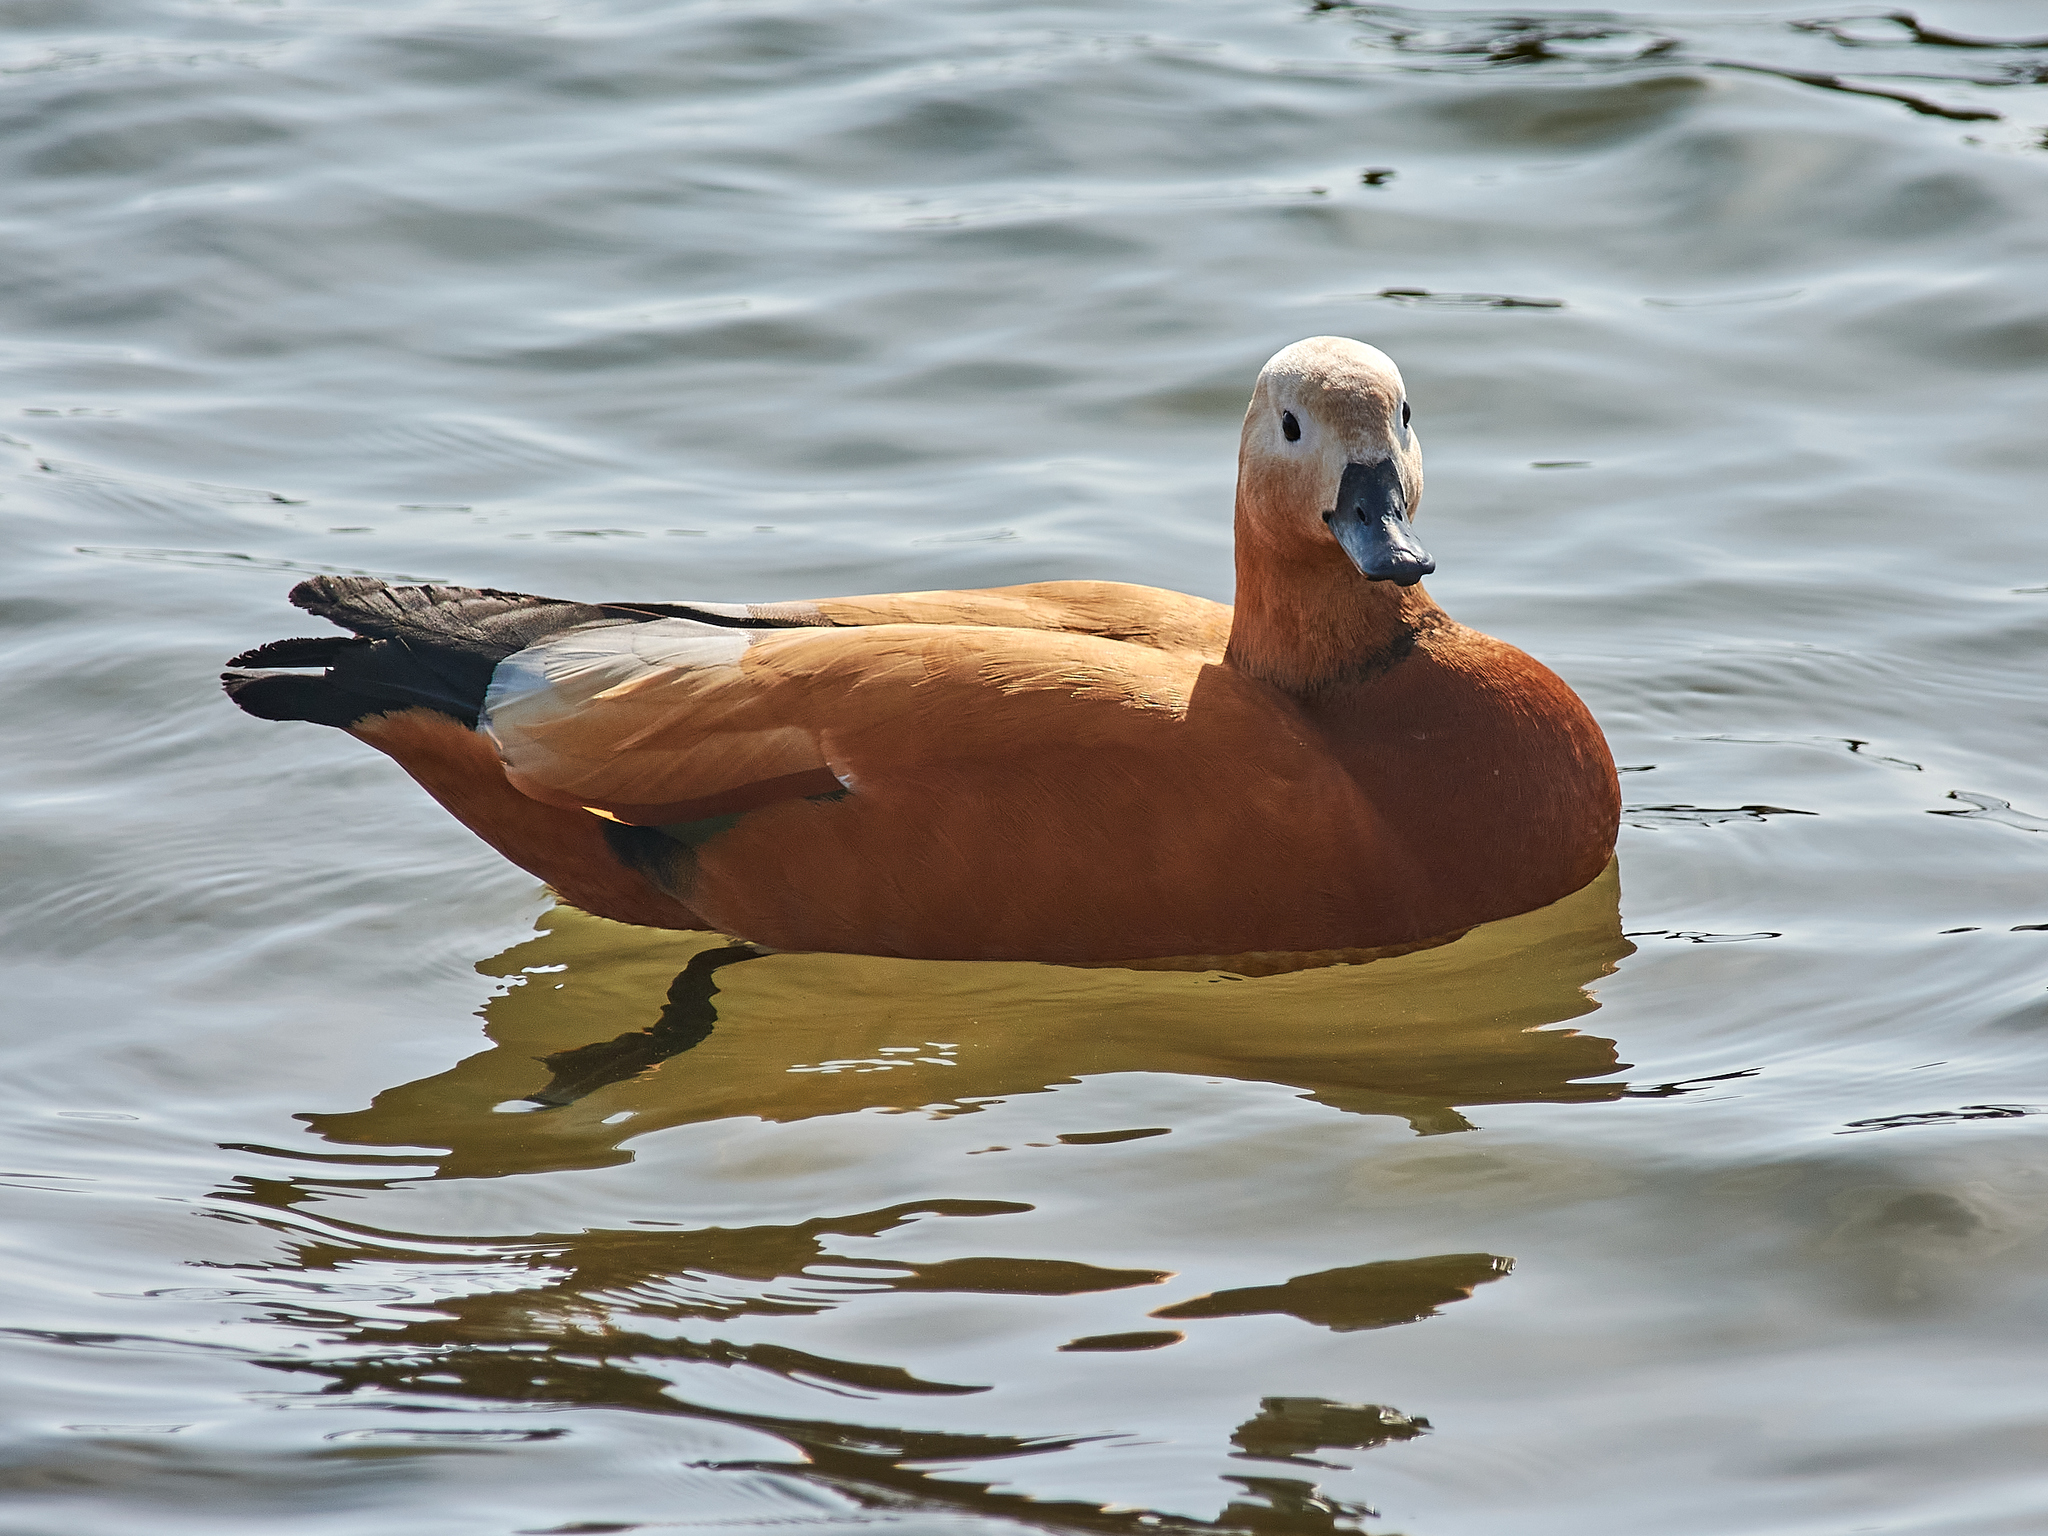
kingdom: Animalia
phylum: Chordata
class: Aves
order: Anseriformes
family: Anatidae
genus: Tadorna
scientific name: Tadorna ferruginea
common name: Ruddy shelduck
